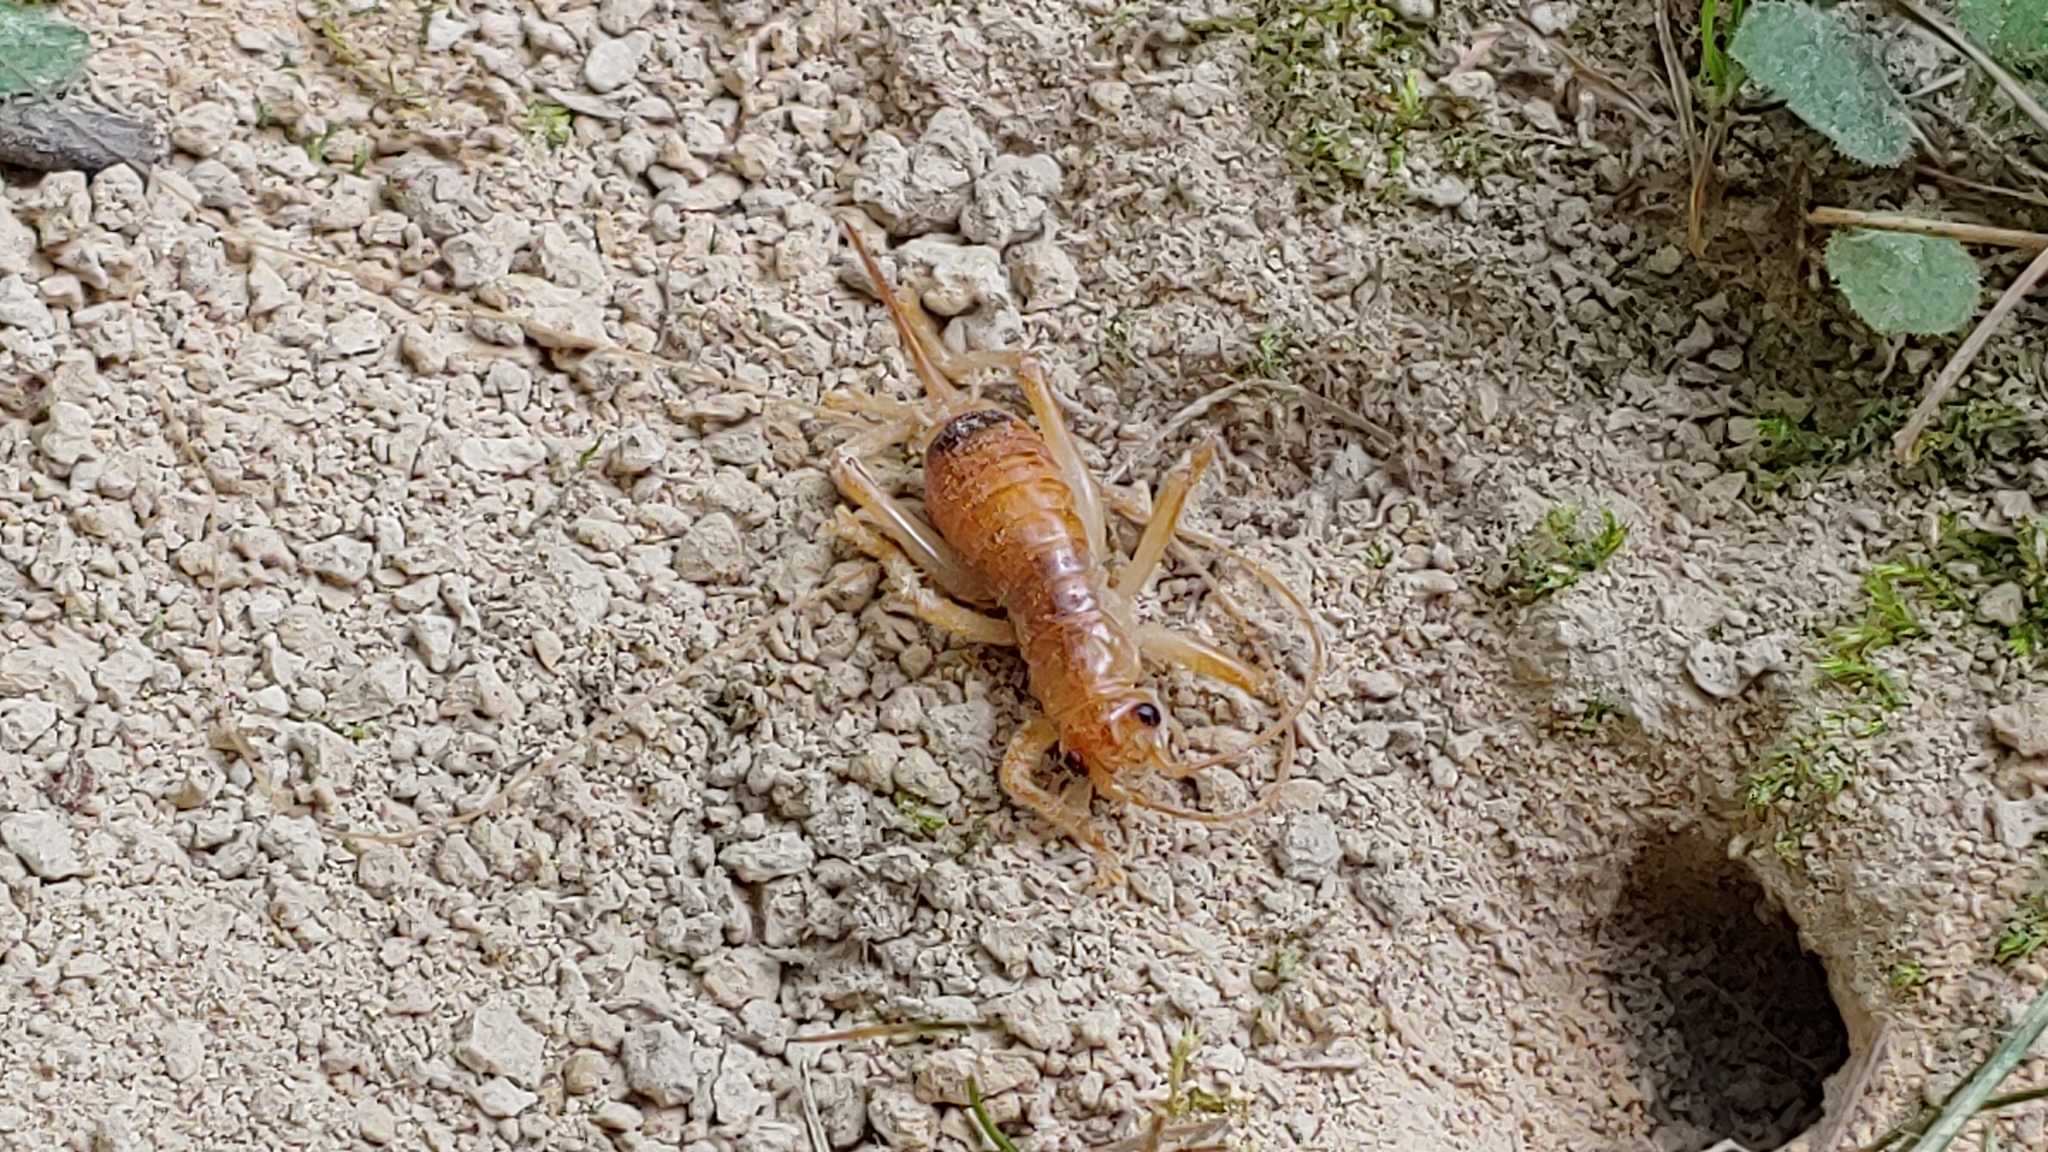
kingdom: Animalia
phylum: Arthropoda
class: Insecta
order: Orthoptera
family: Gryllacrididae
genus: Camptonotus
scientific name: Camptonotus carolinensis
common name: Carolina leaf-roller
